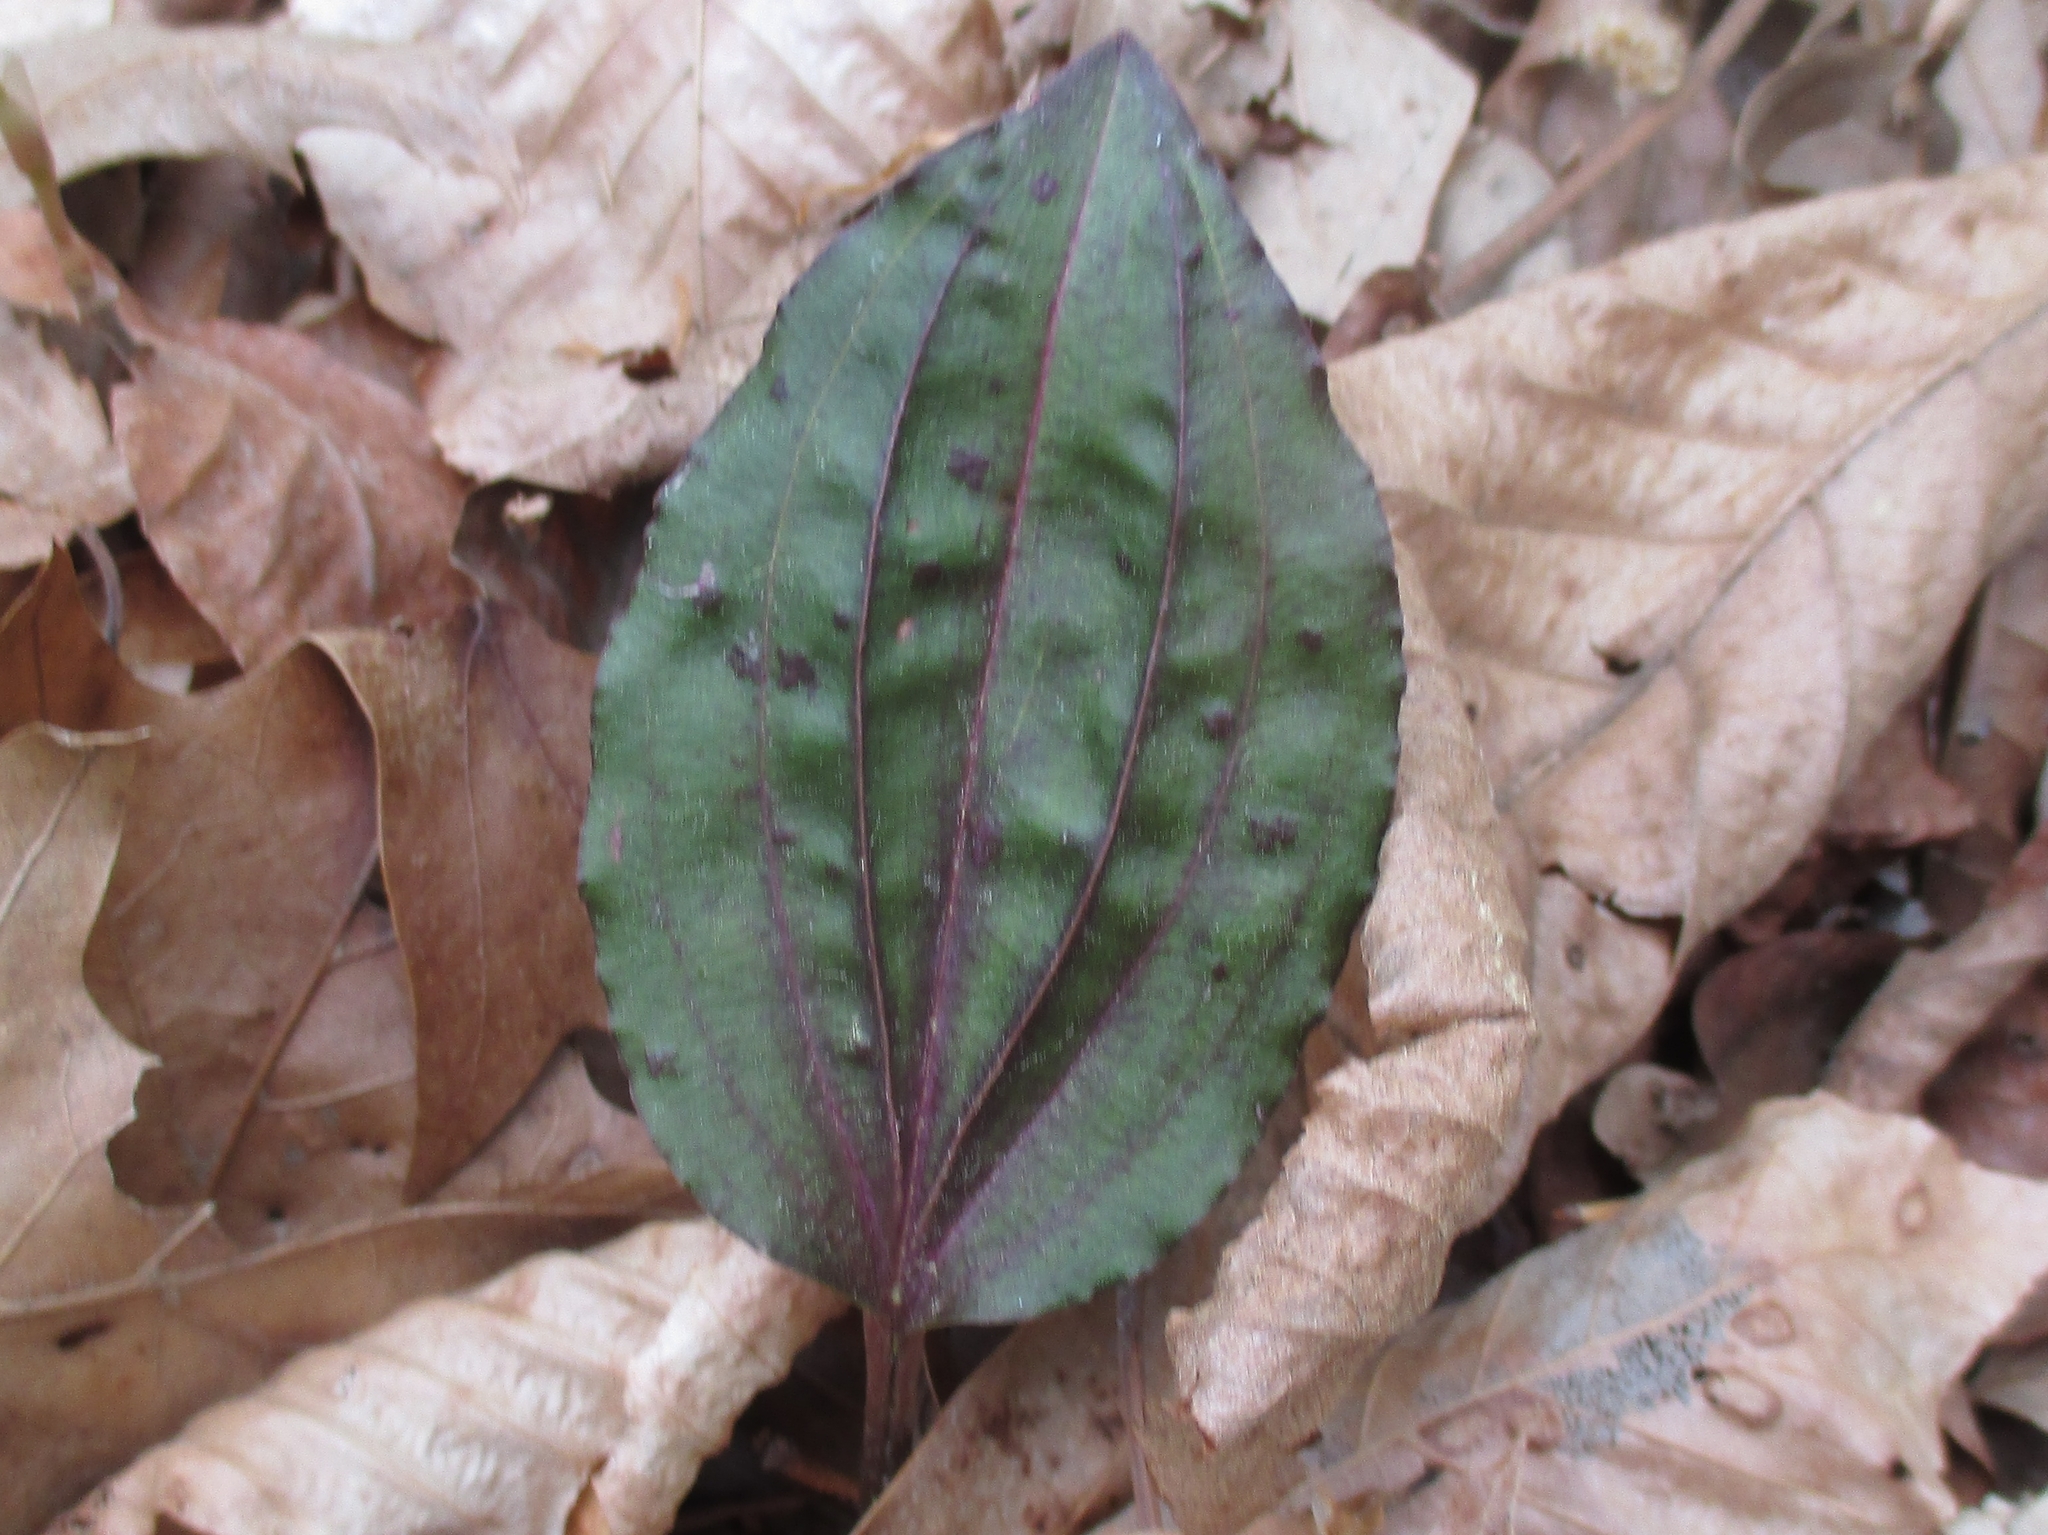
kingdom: Plantae
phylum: Tracheophyta
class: Liliopsida
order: Asparagales
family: Orchidaceae
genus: Tipularia
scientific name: Tipularia discolor
